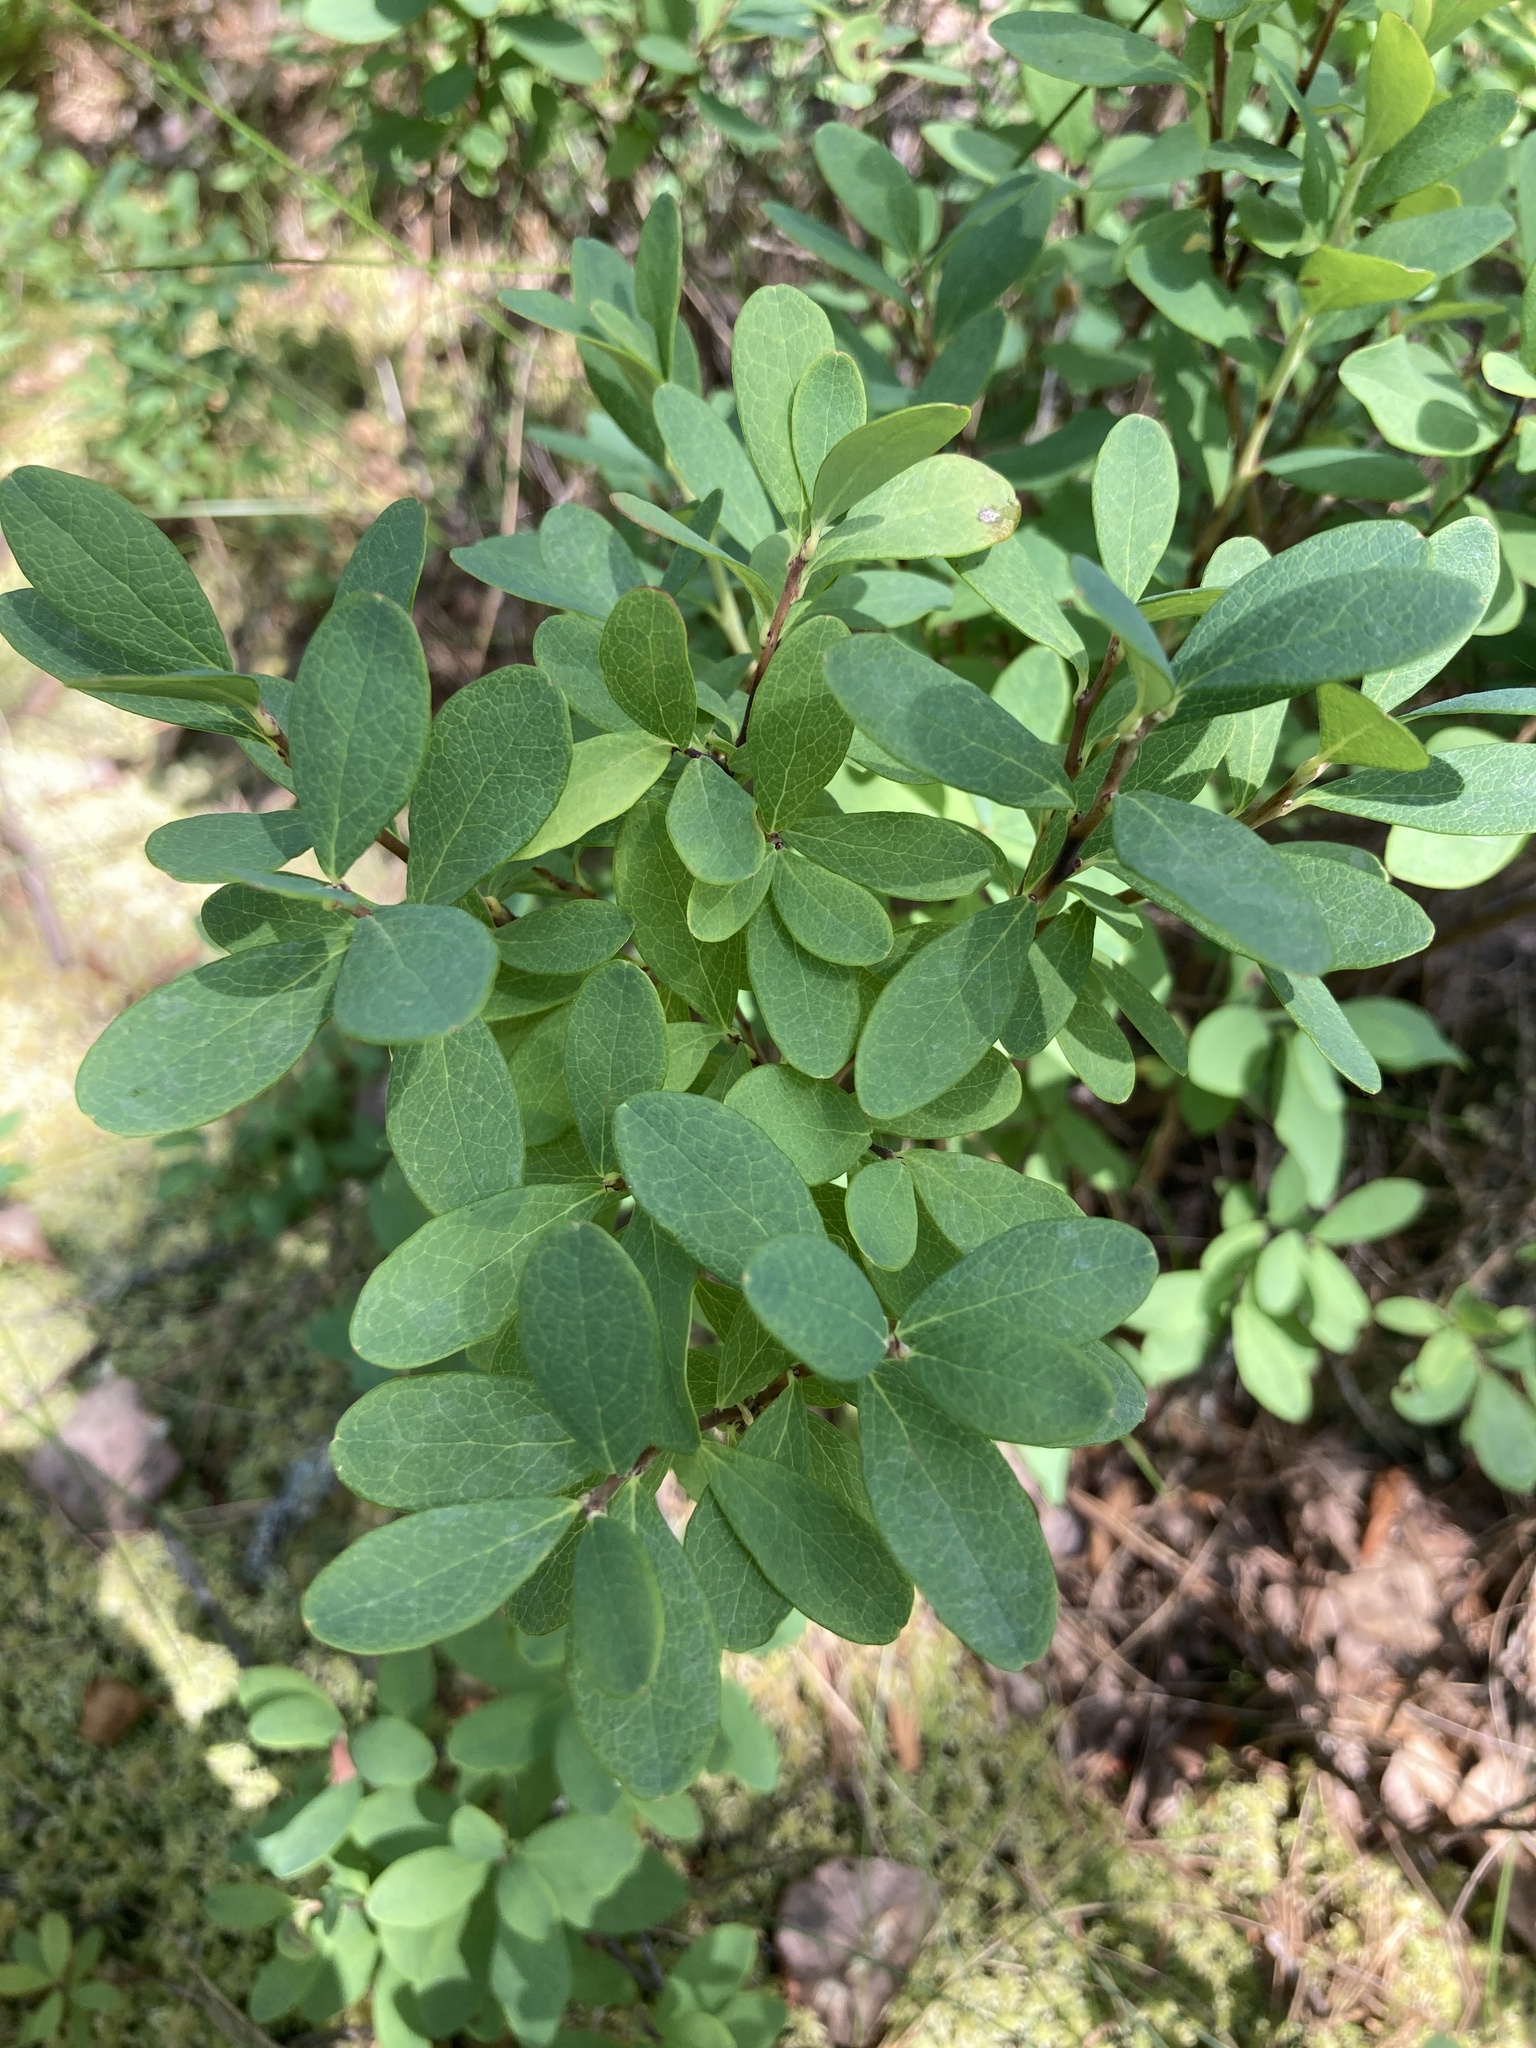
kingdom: Plantae
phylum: Tracheophyta
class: Magnoliopsida
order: Ericales
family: Ericaceae
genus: Vaccinium
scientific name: Vaccinium uliginosum
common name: Bog bilberry
